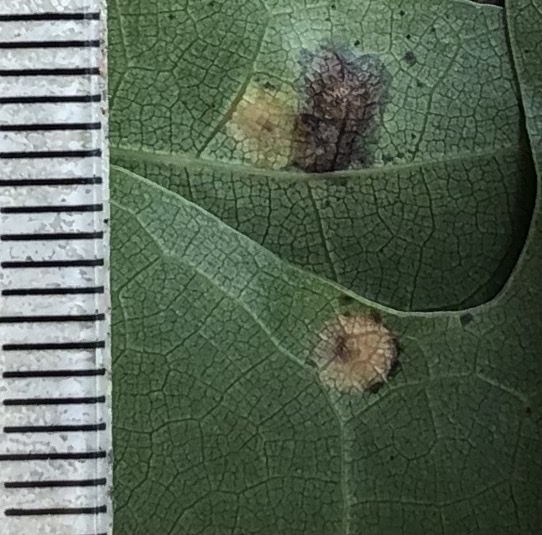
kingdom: Animalia
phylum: Arthropoda
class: Insecta
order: Diptera
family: Cecidomyiidae
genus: Polystepha
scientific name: Polystepha pilulae
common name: Oak leaf gall midge
